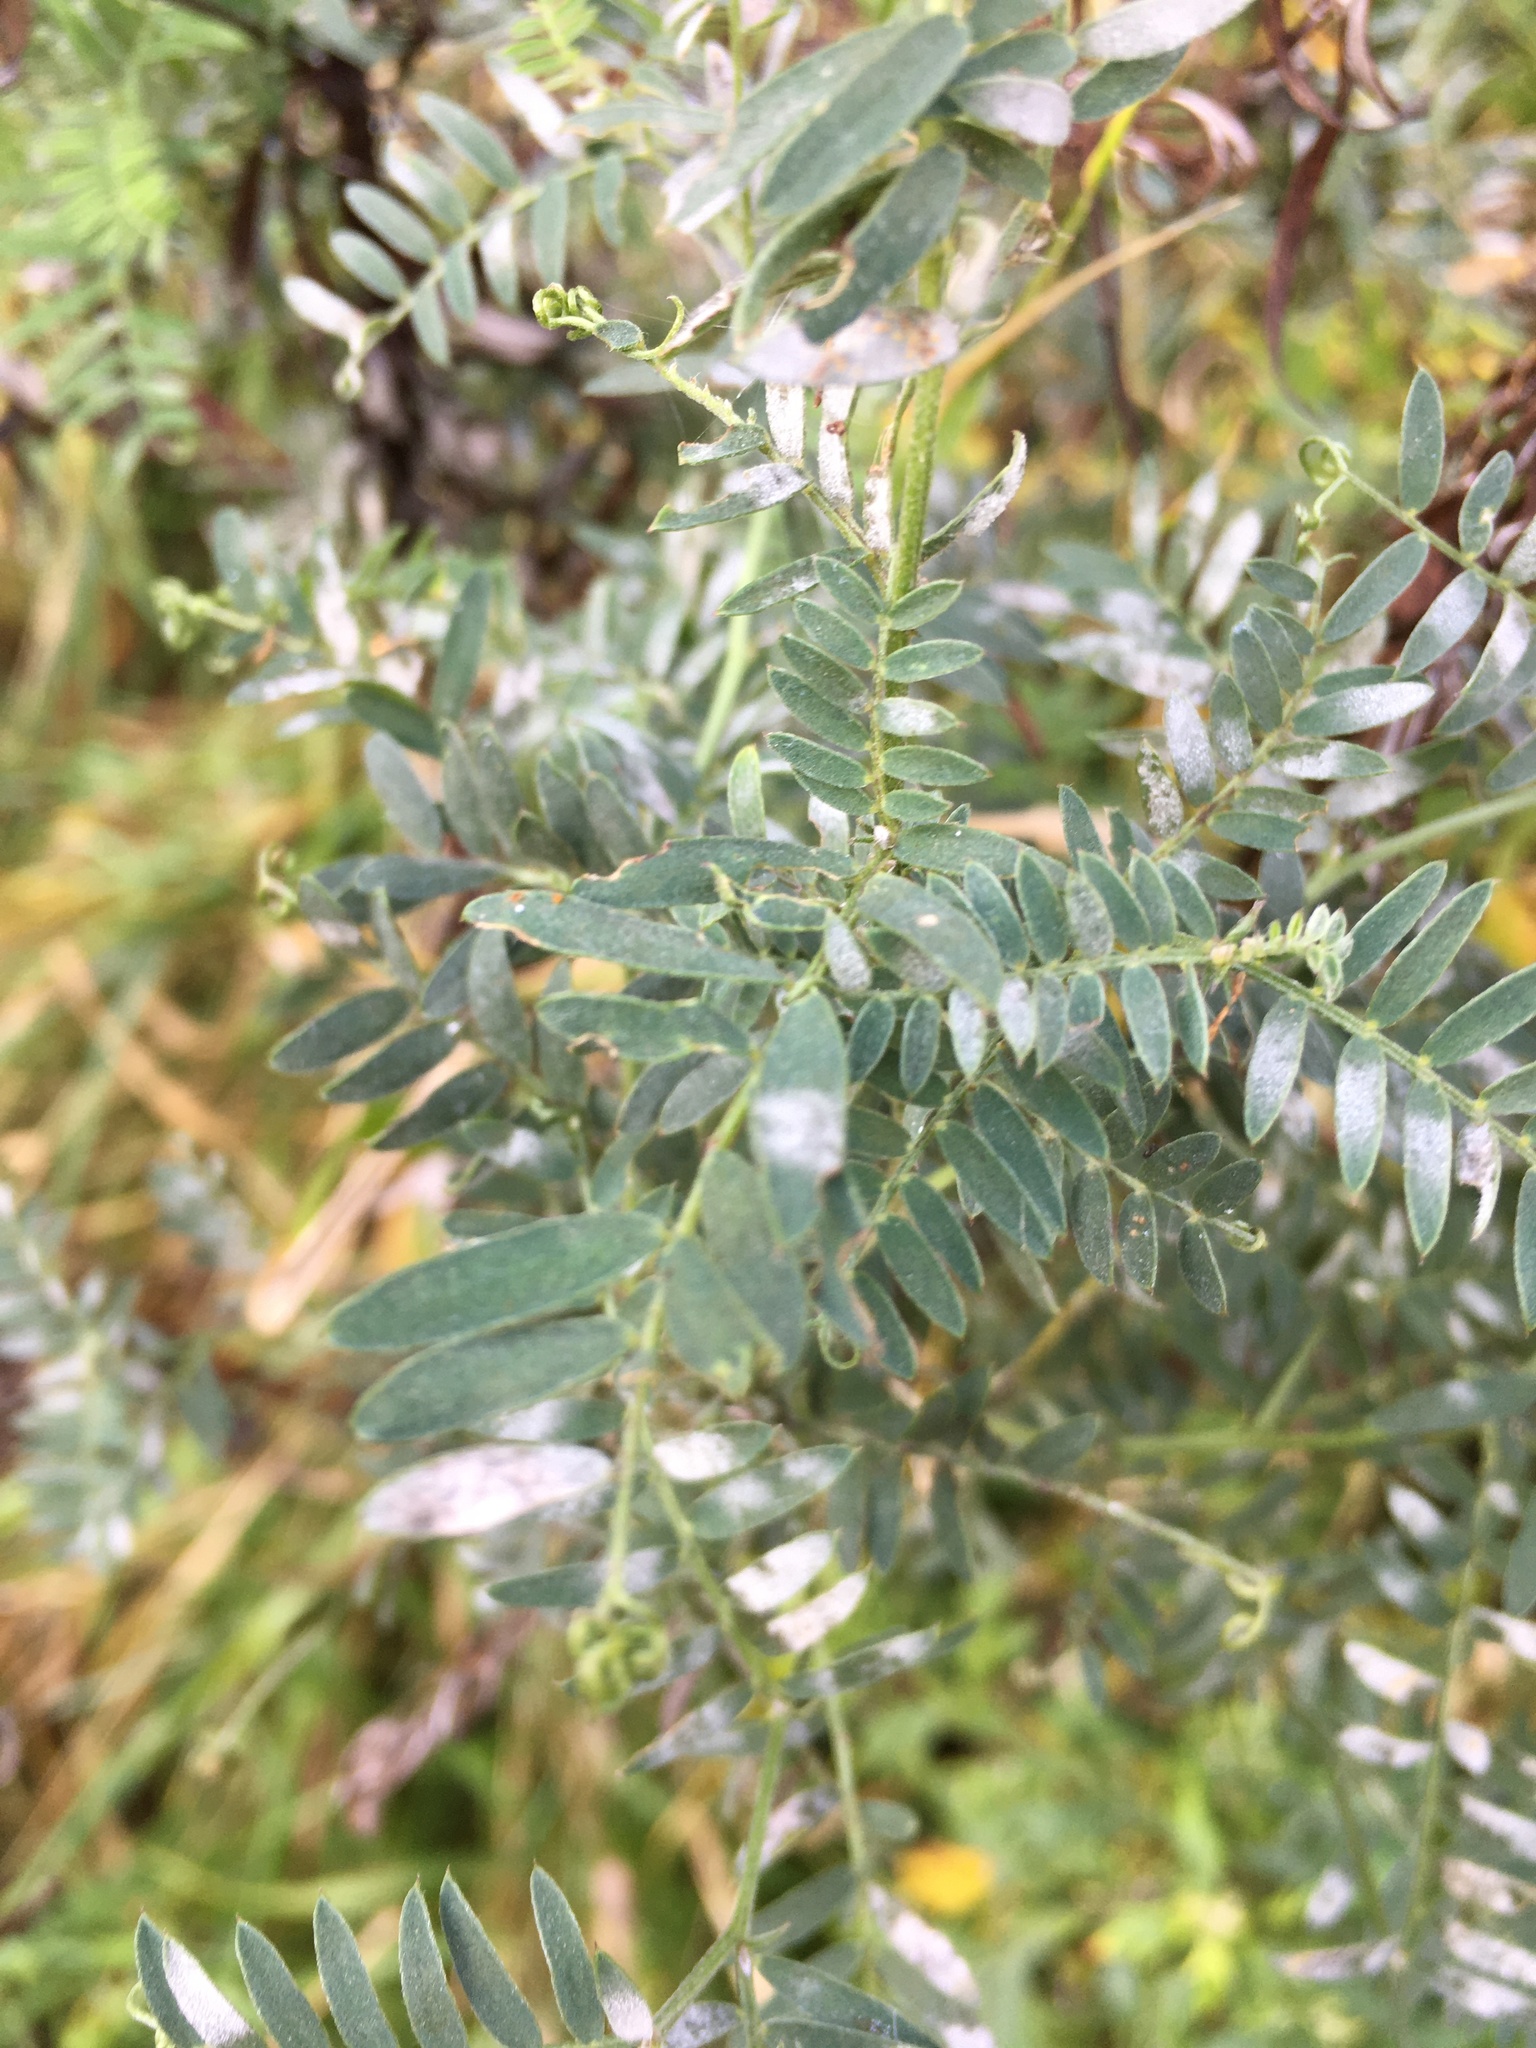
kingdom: Plantae
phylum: Tracheophyta
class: Magnoliopsida
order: Fabales
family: Fabaceae
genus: Vicia
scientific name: Vicia cracca
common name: Bird vetch
